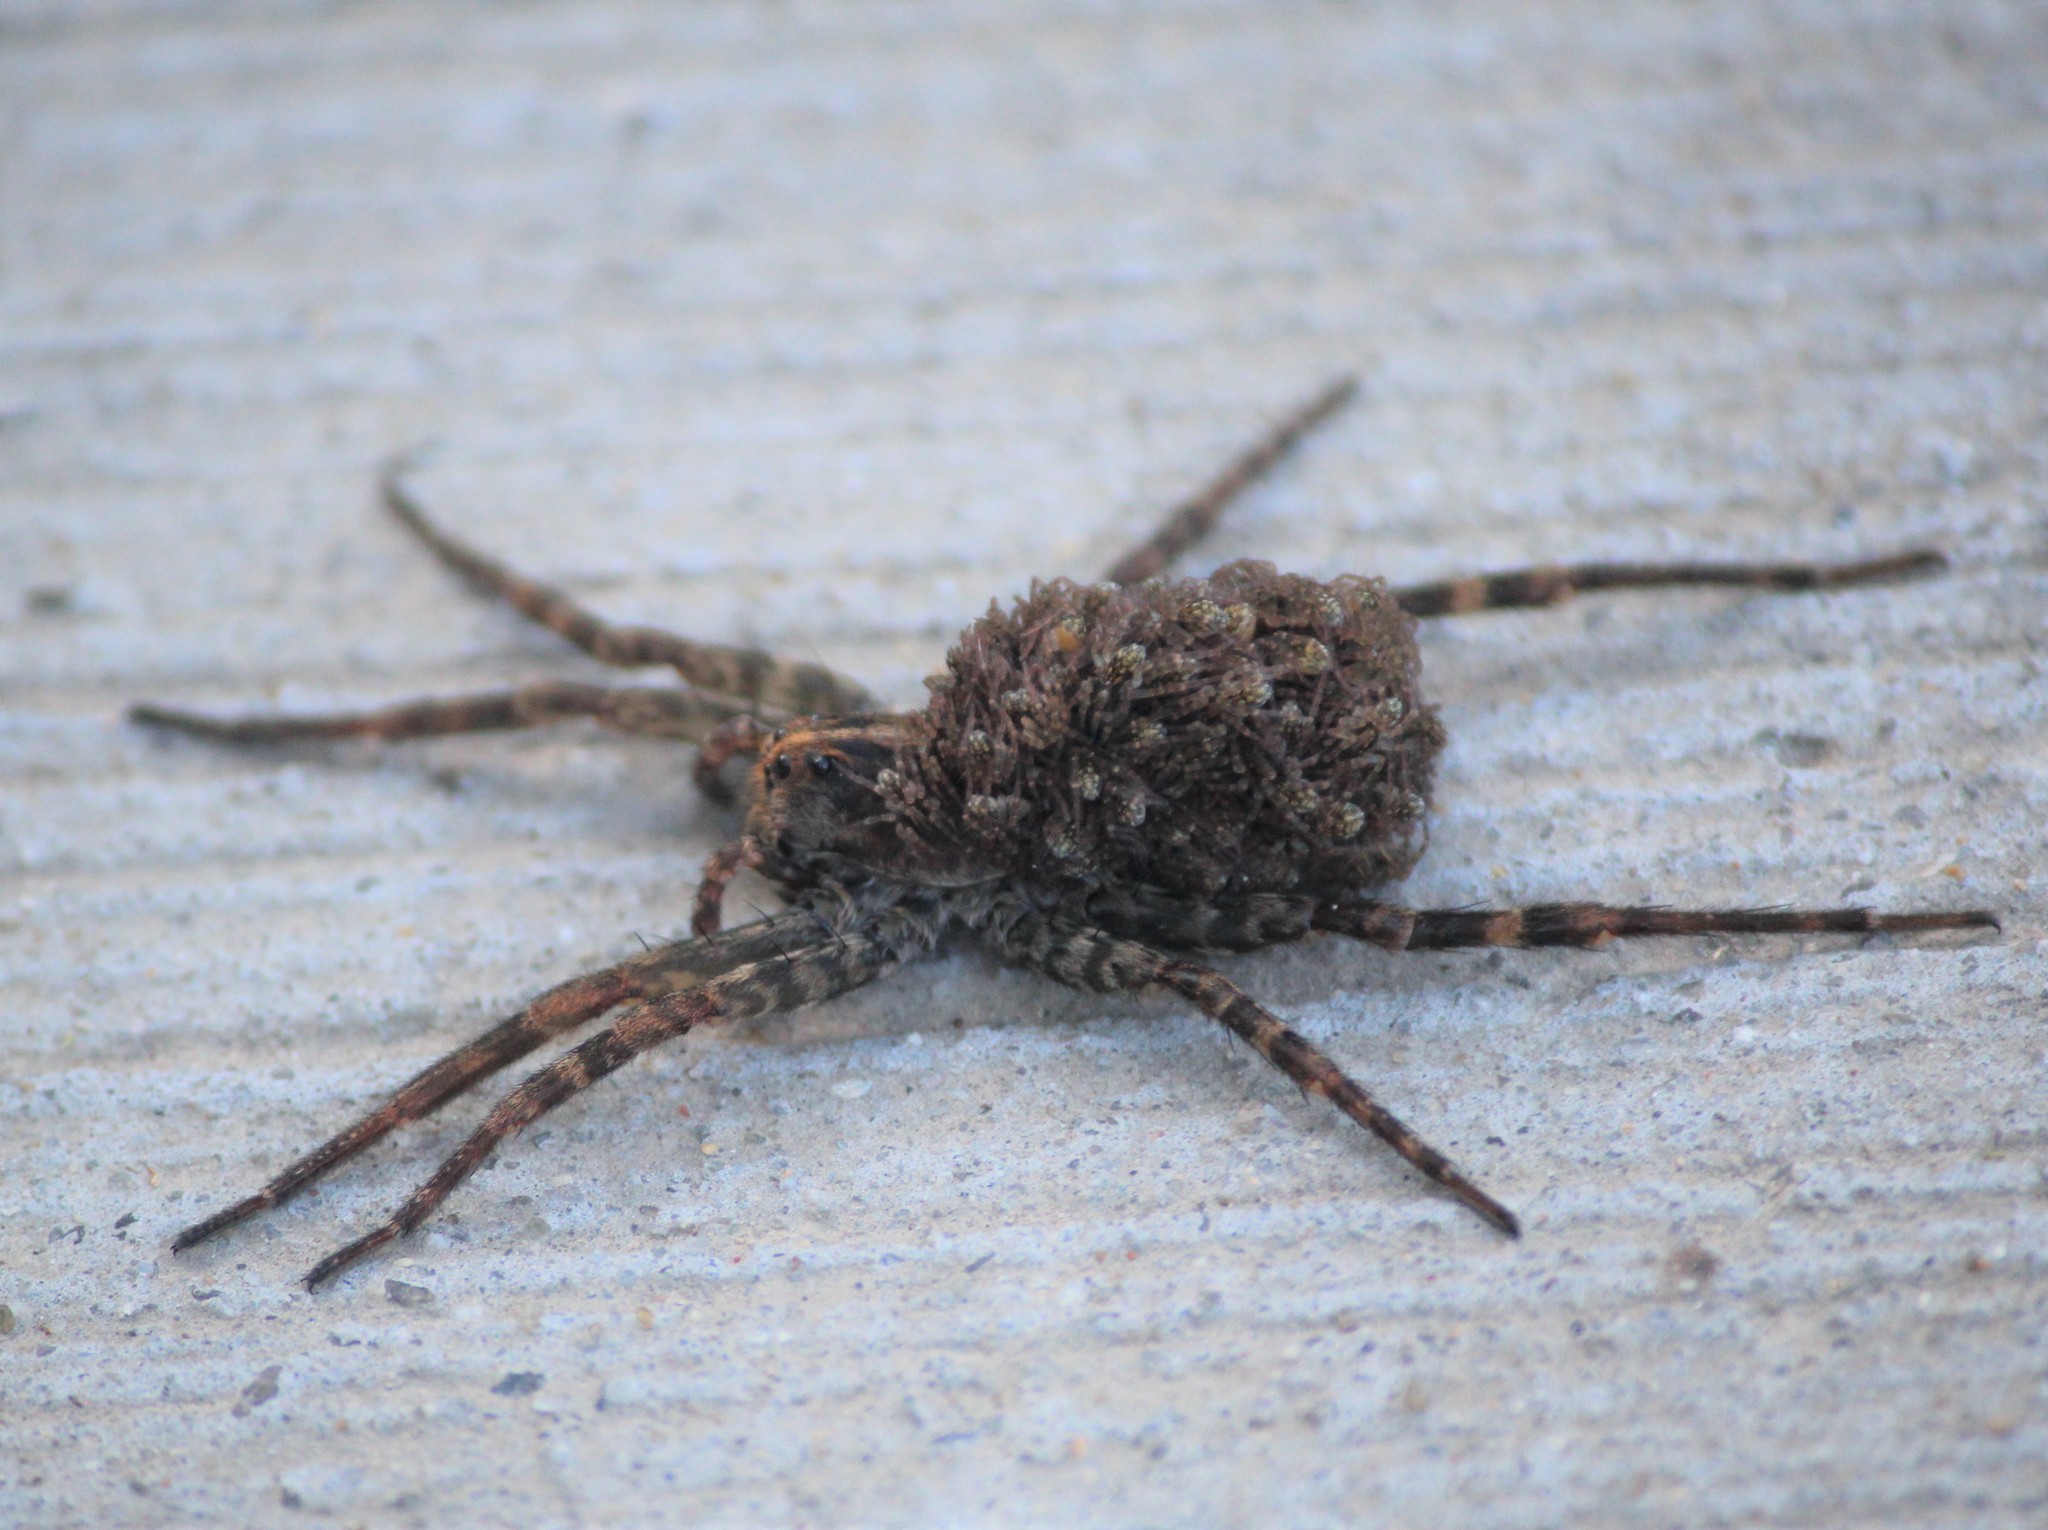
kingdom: Animalia
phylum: Arthropoda
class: Arachnida
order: Araneae
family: Lycosidae
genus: Tigrosa
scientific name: Tigrosa georgicola
